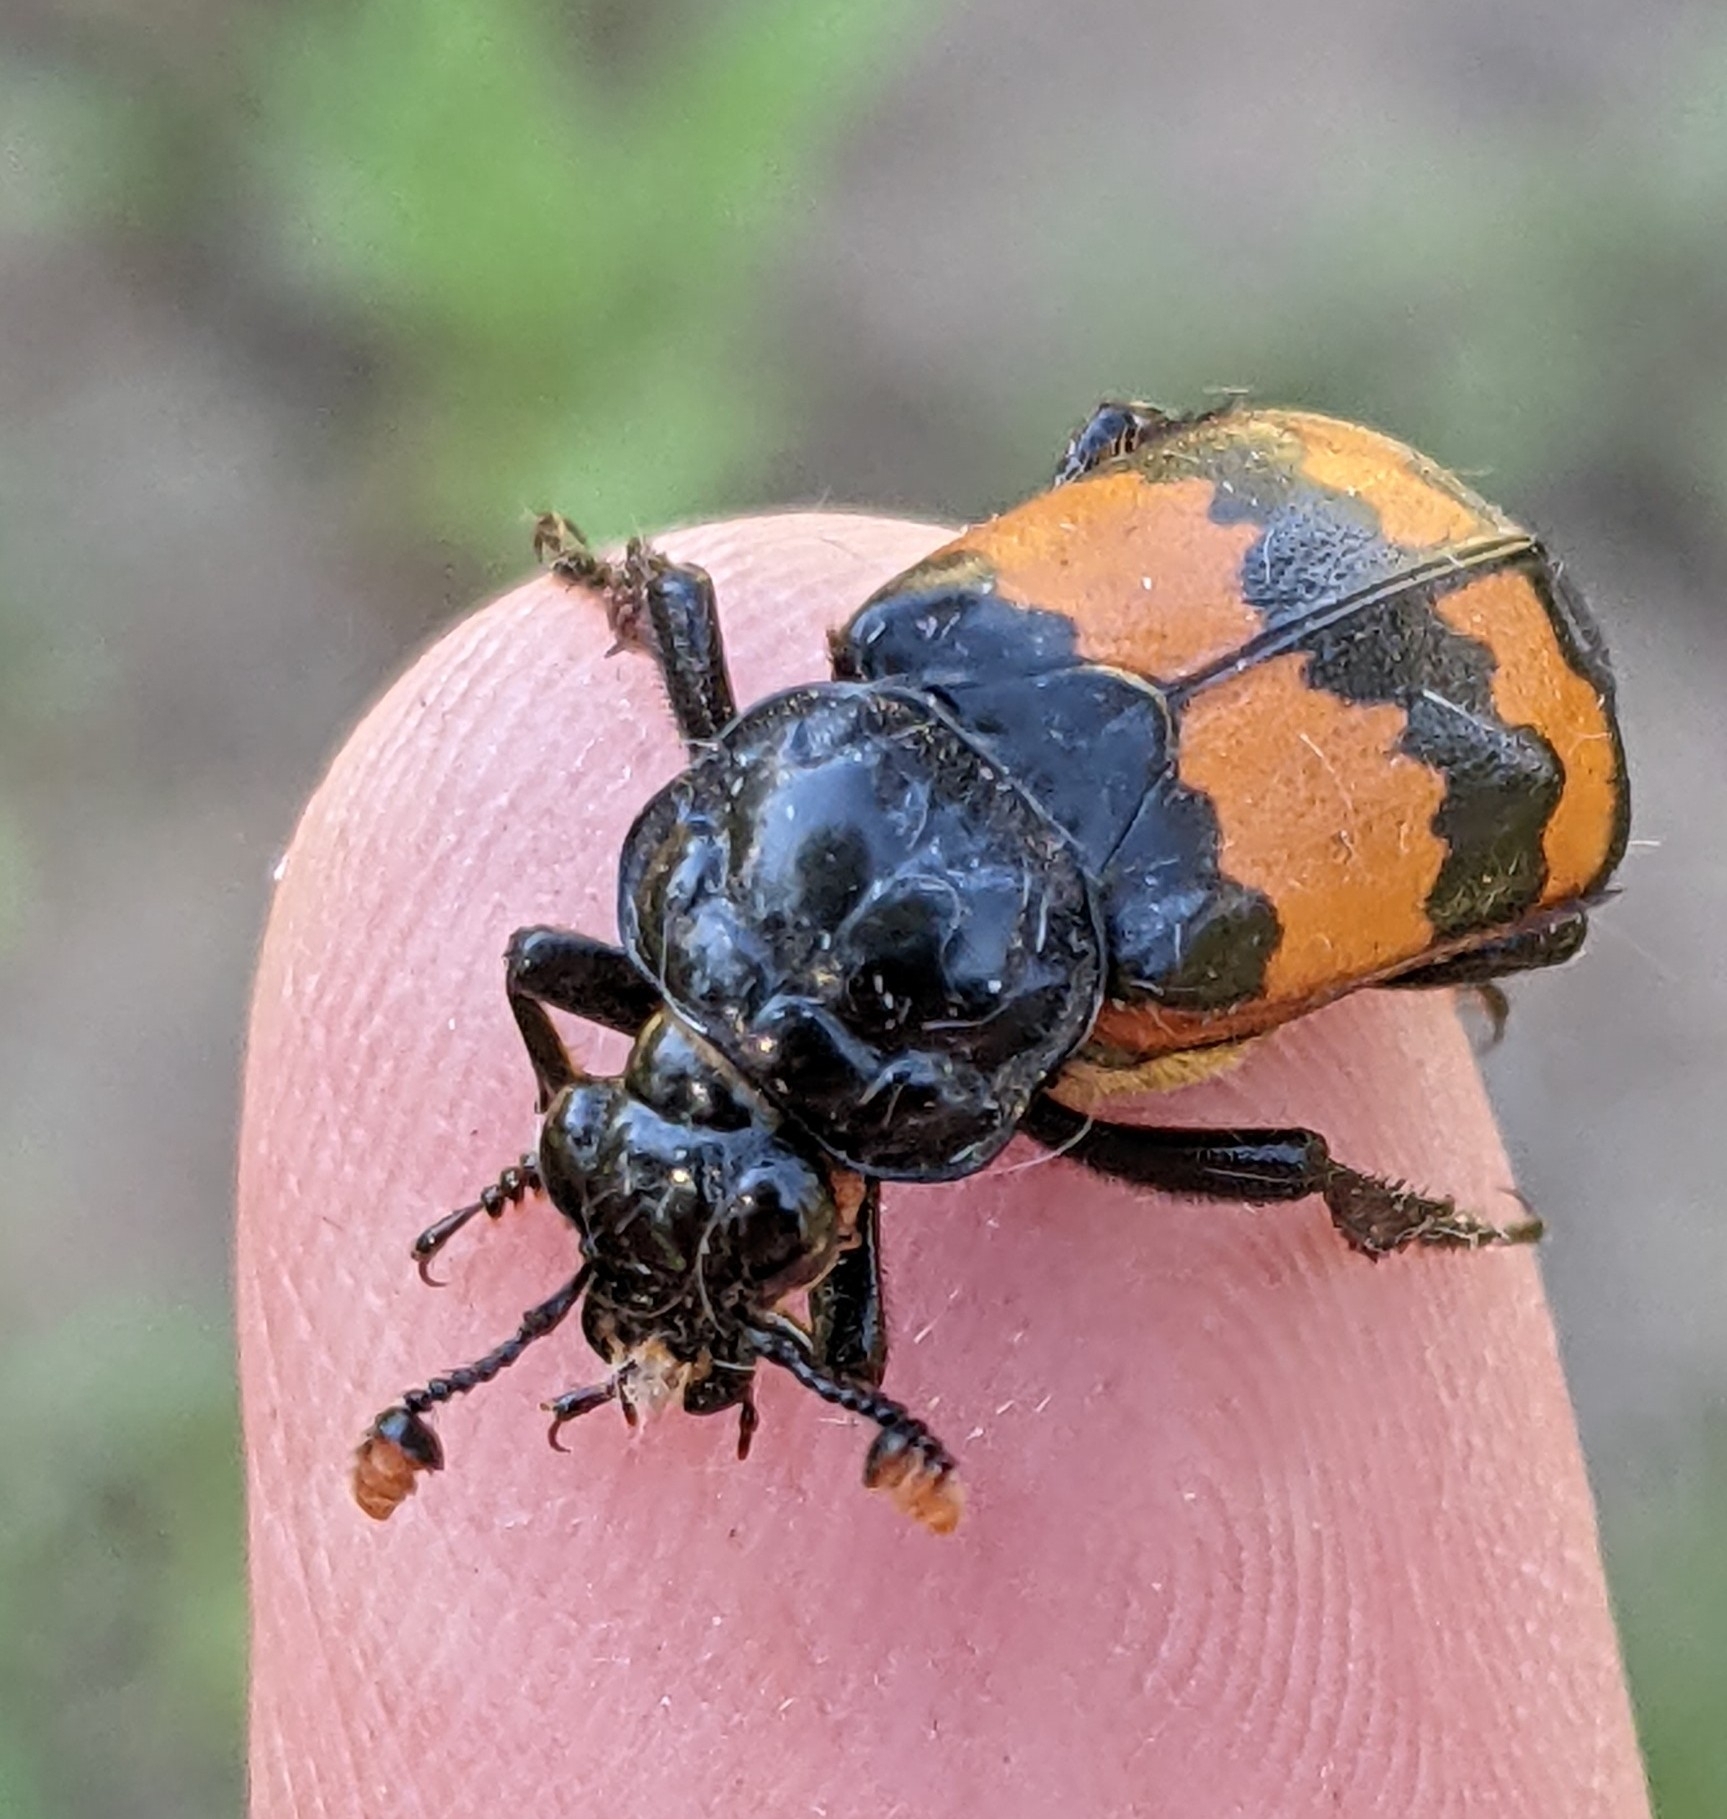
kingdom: Animalia
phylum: Arthropoda
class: Insecta
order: Coleoptera
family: Staphylinidae
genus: Nicrophorus
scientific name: Nicrophorus investigator
